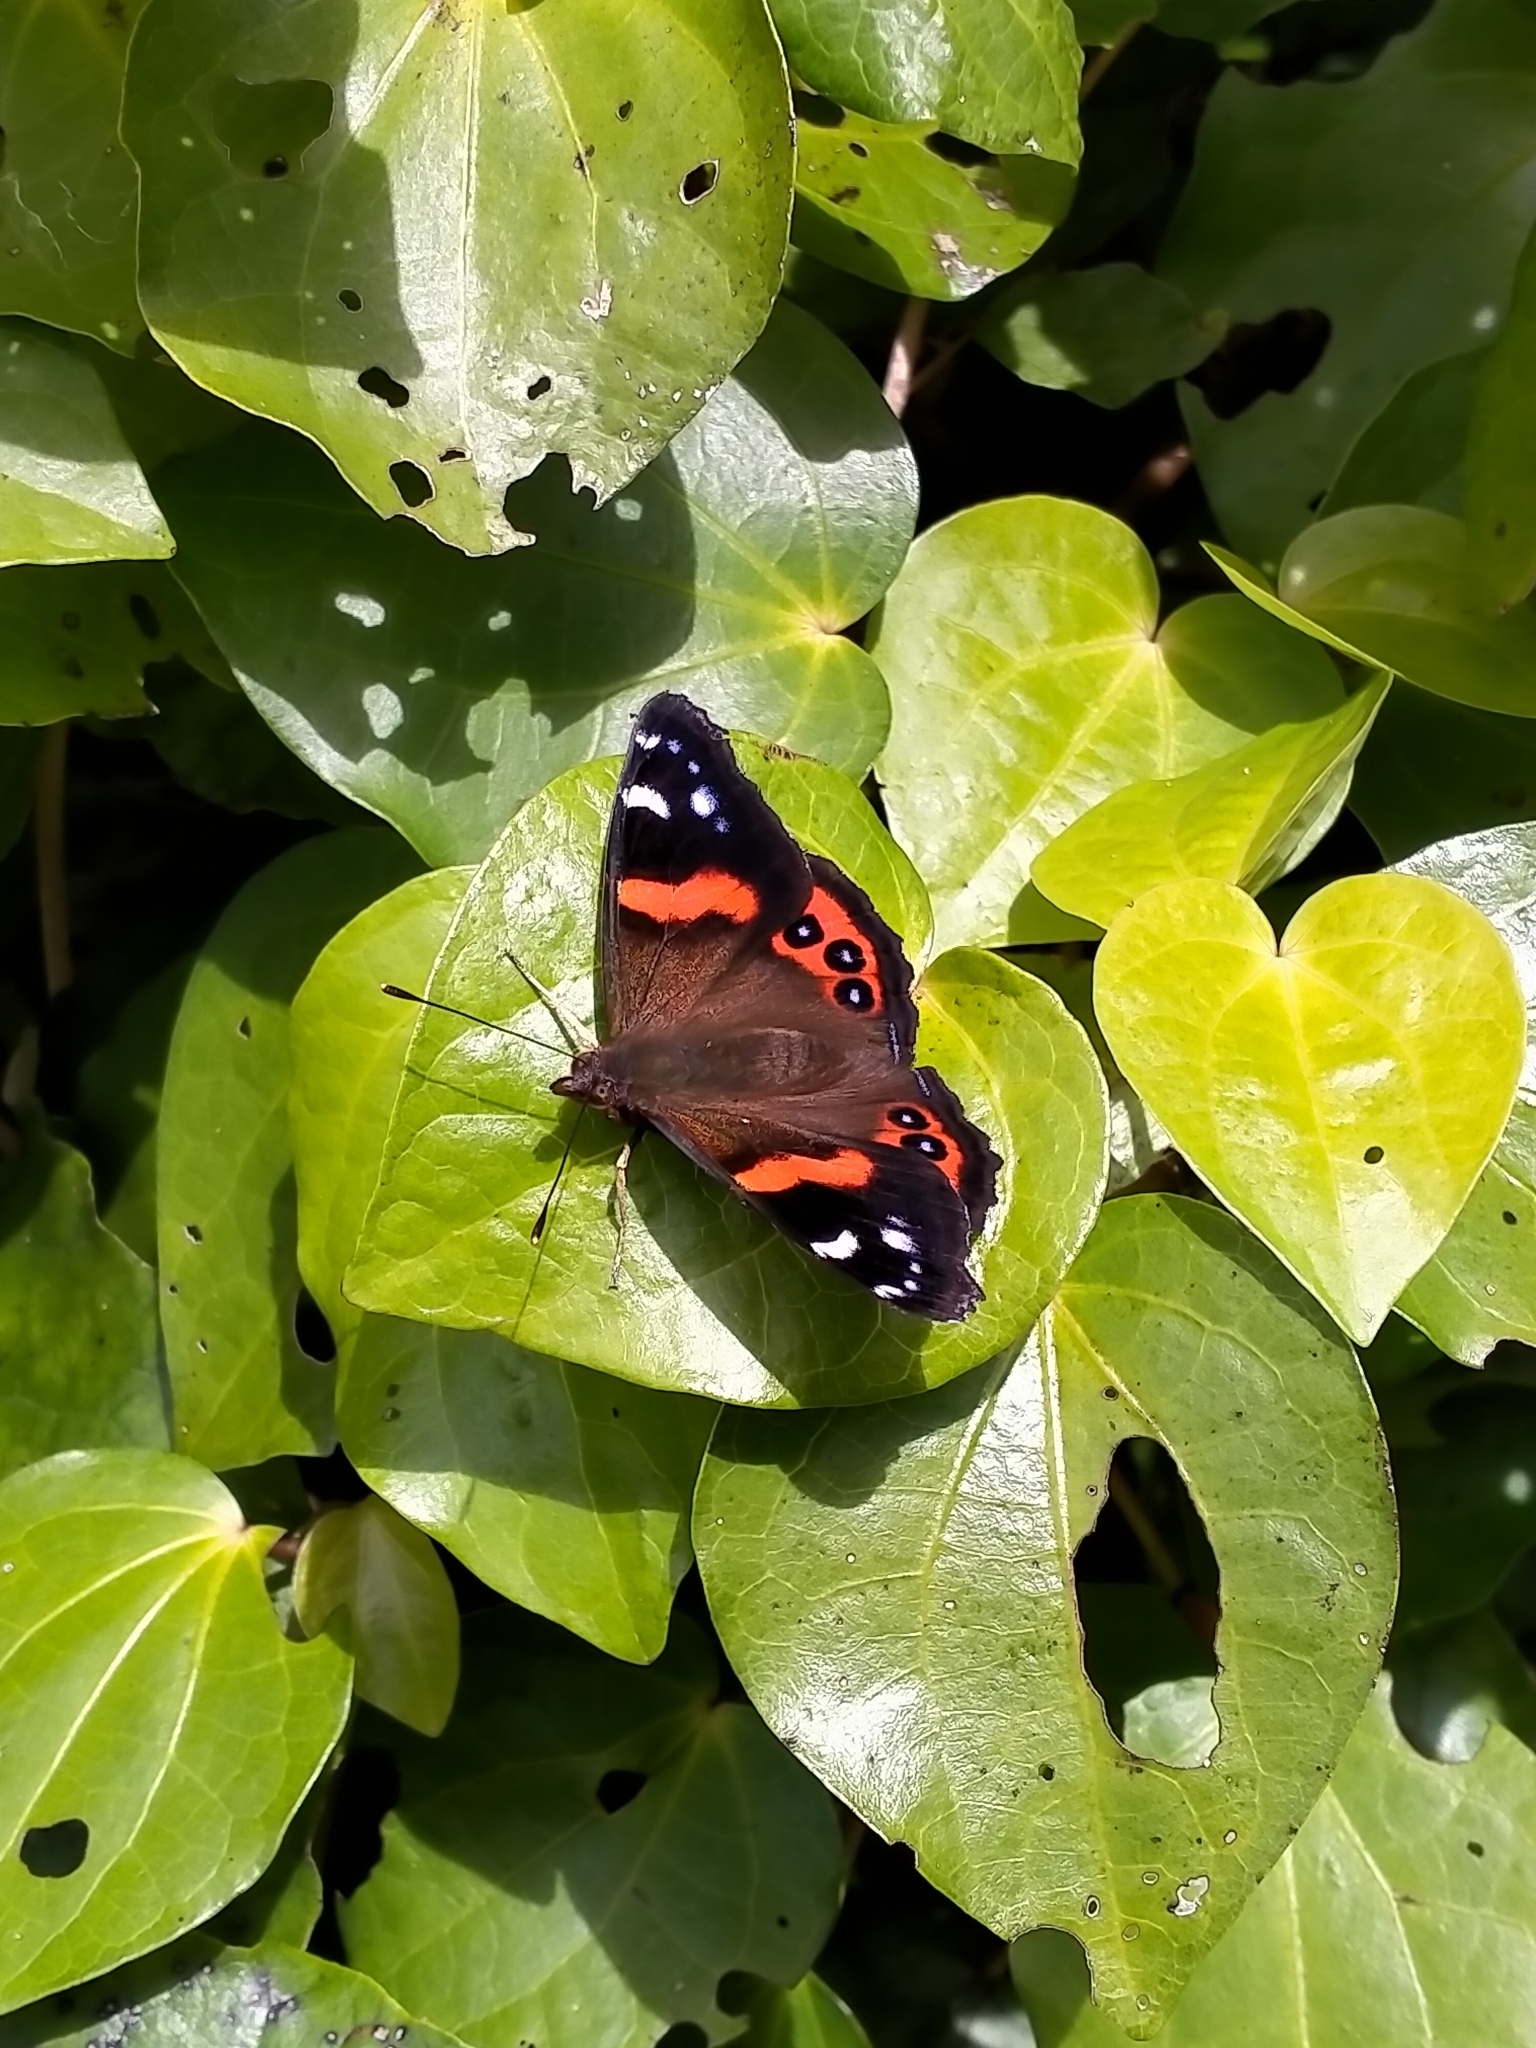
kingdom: Animalia
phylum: Arthropoda
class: Insecta
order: Lepidoptera
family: Nymphalidae
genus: Vanessa
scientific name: Vanessa gonerilla
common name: New zealand red admiral
